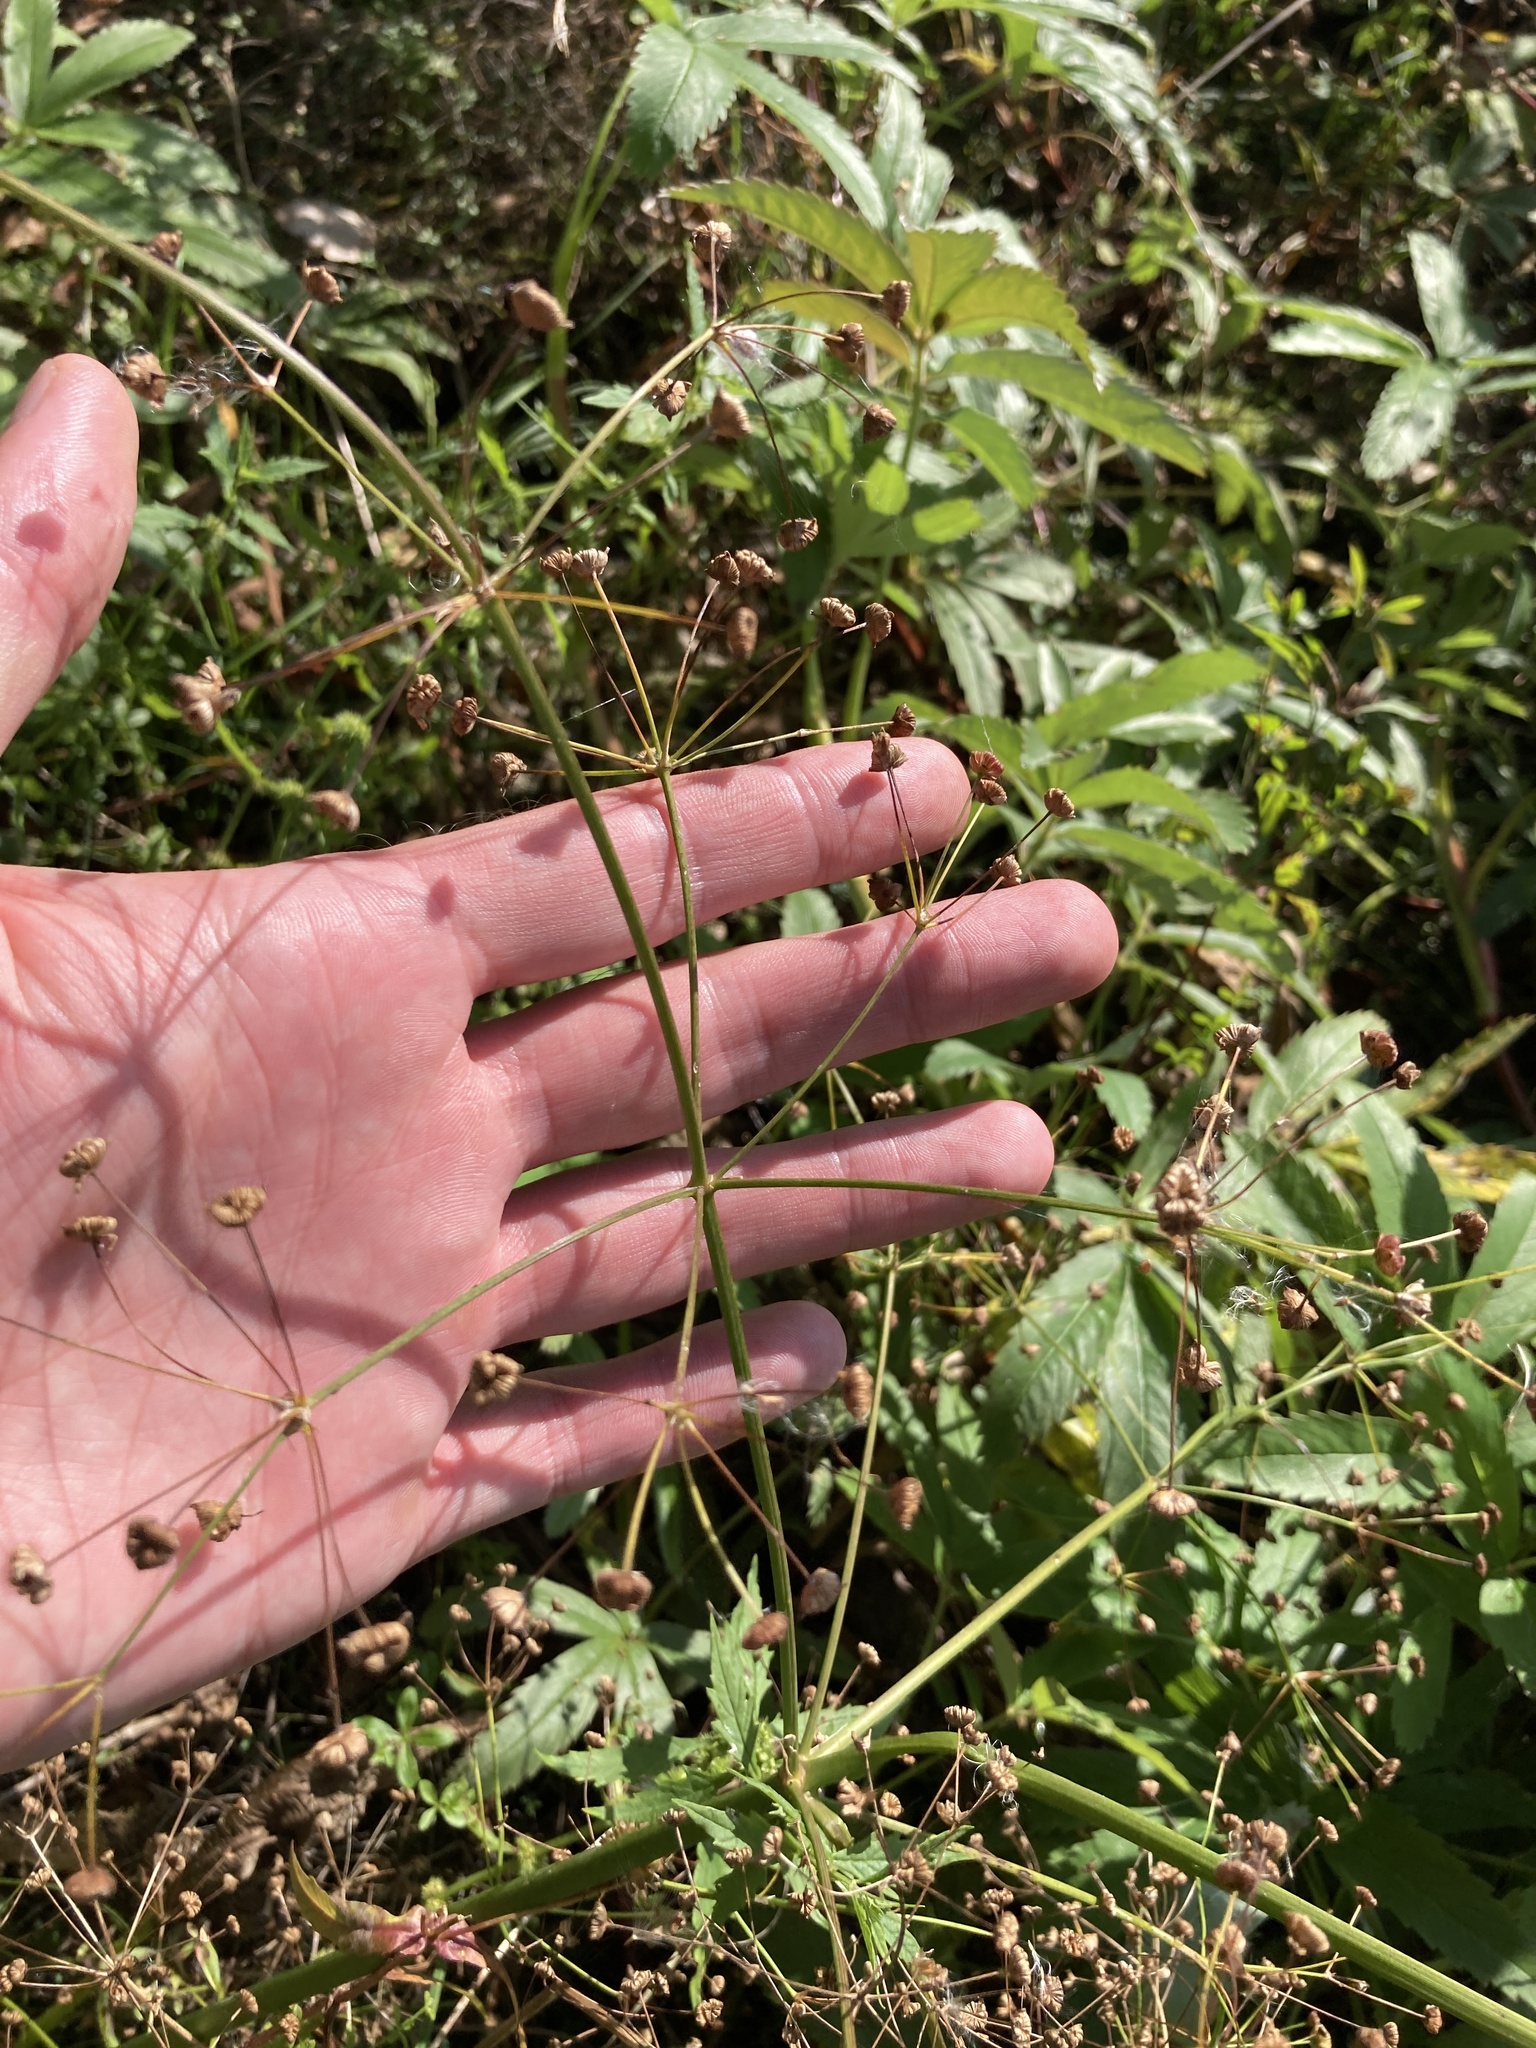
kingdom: Plantae
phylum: Tracheophyta
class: Liliopsida
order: Alismatales
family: Alismataceae
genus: Alisma
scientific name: Alisma plantago-aquatica
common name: Water-plantain
